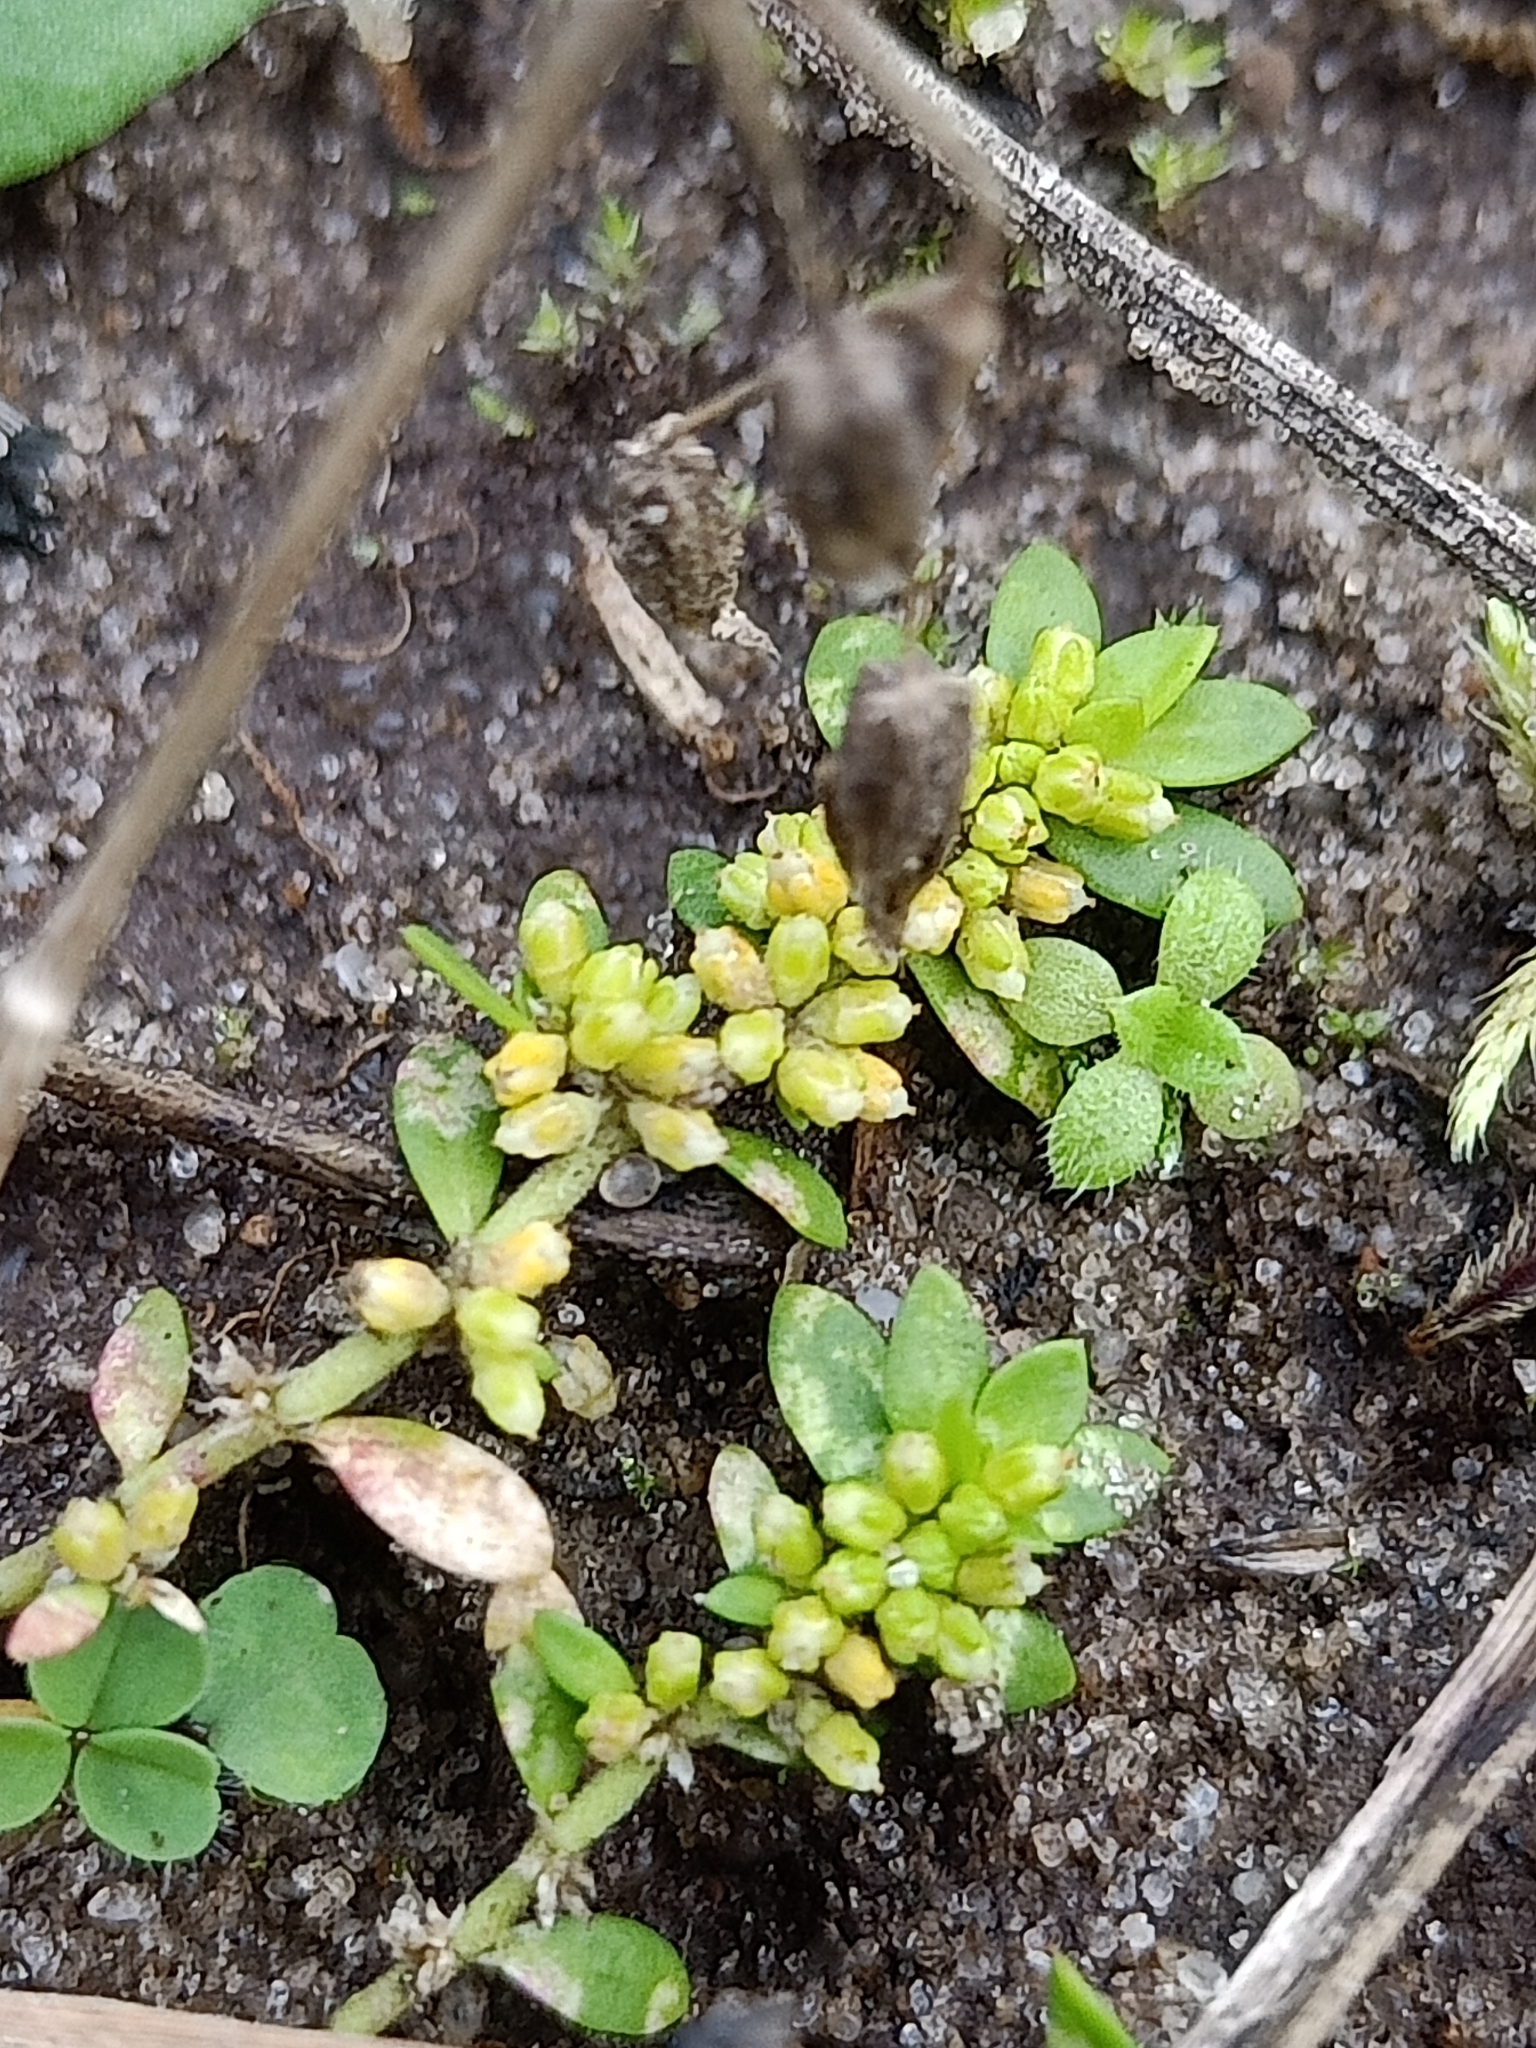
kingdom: Plantae
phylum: Tracheophyta
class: Magnoliopsida
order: Caryophyllales
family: Caryophyllaceae
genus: Herniaria
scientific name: Herniaria glabra
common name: Smooth rupturewort
